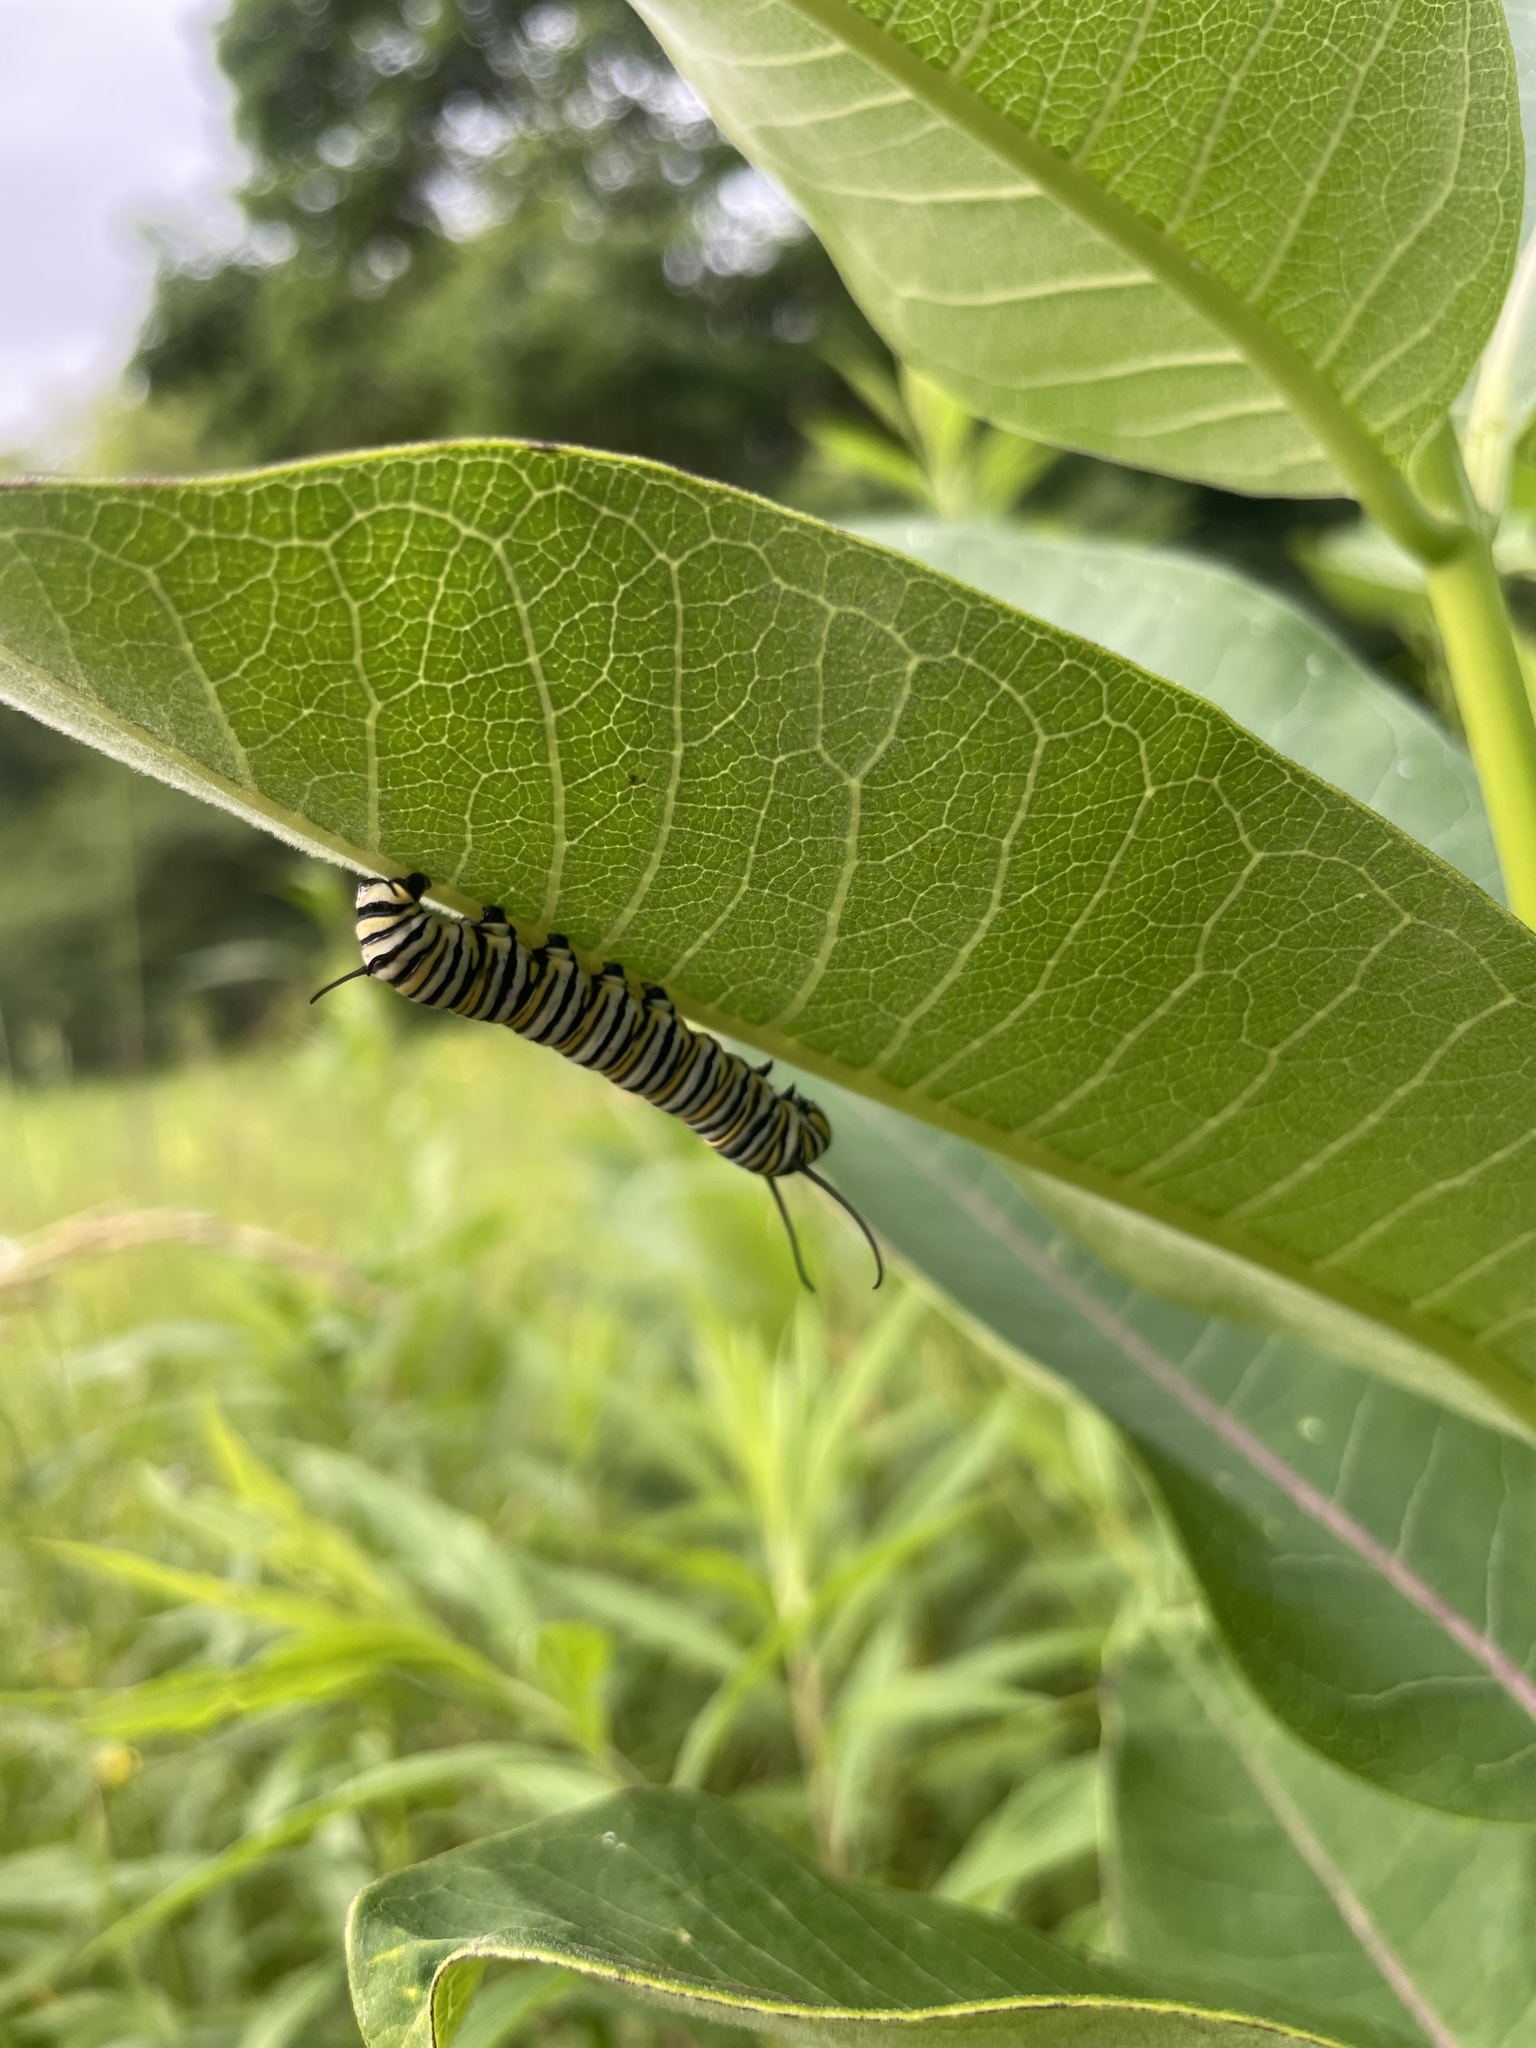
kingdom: Animalia
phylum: Arthropoda
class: Insecta
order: Lepidoptera
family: Nymphalidae
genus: Danaus
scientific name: Danaus plexippus
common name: Monarch
